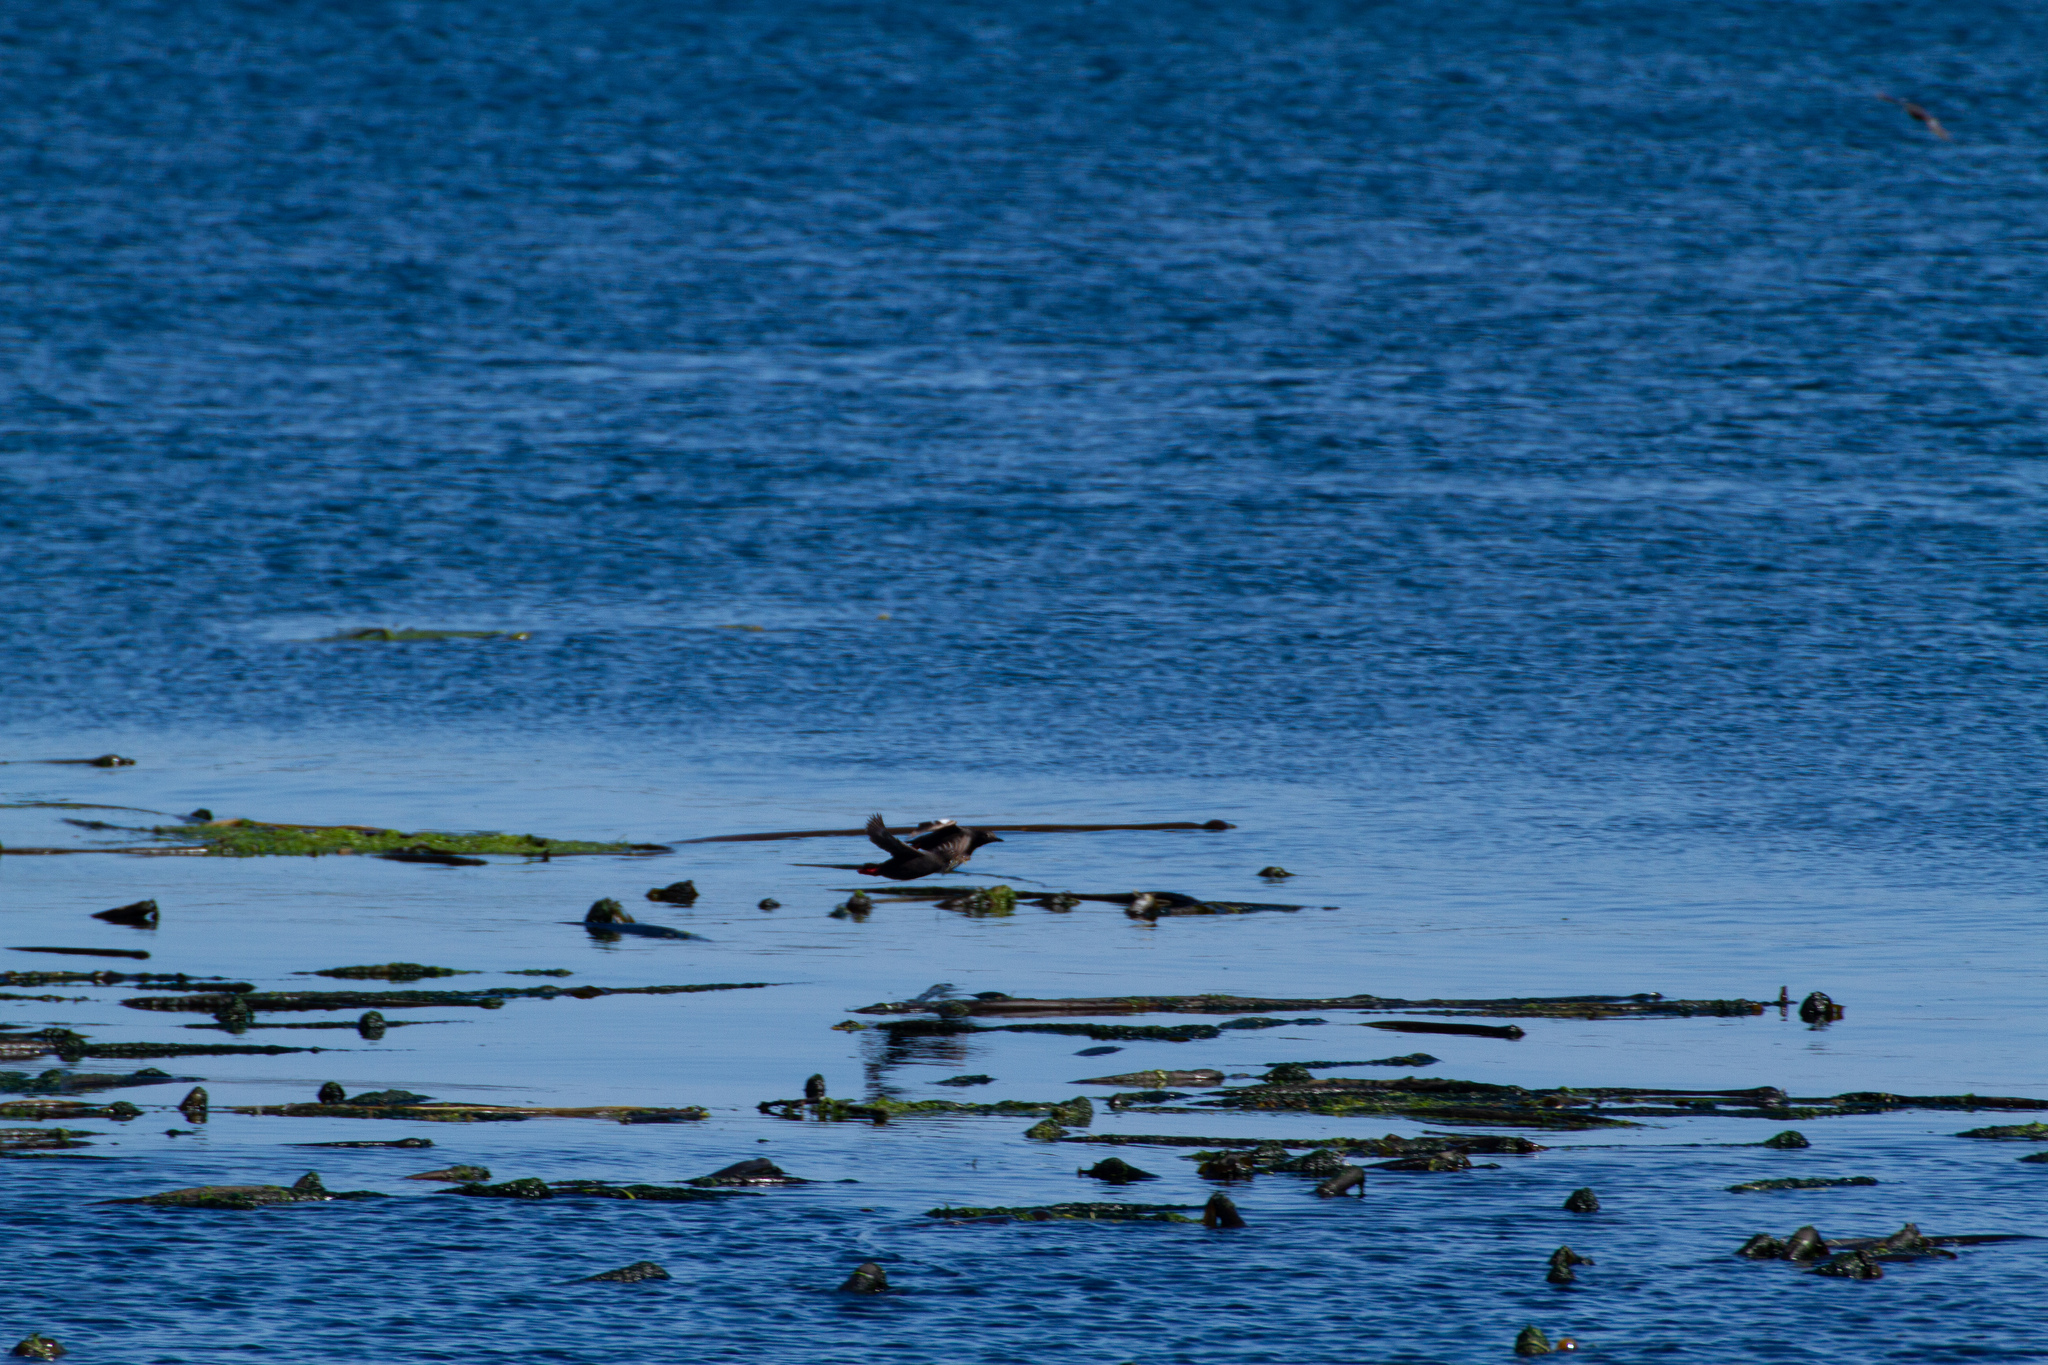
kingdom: Animalia
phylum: Chordata
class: Aves
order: Charadriiformes
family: Alcidae
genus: Cepphus
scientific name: Cepphus columba
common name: Pigeon guillemot
